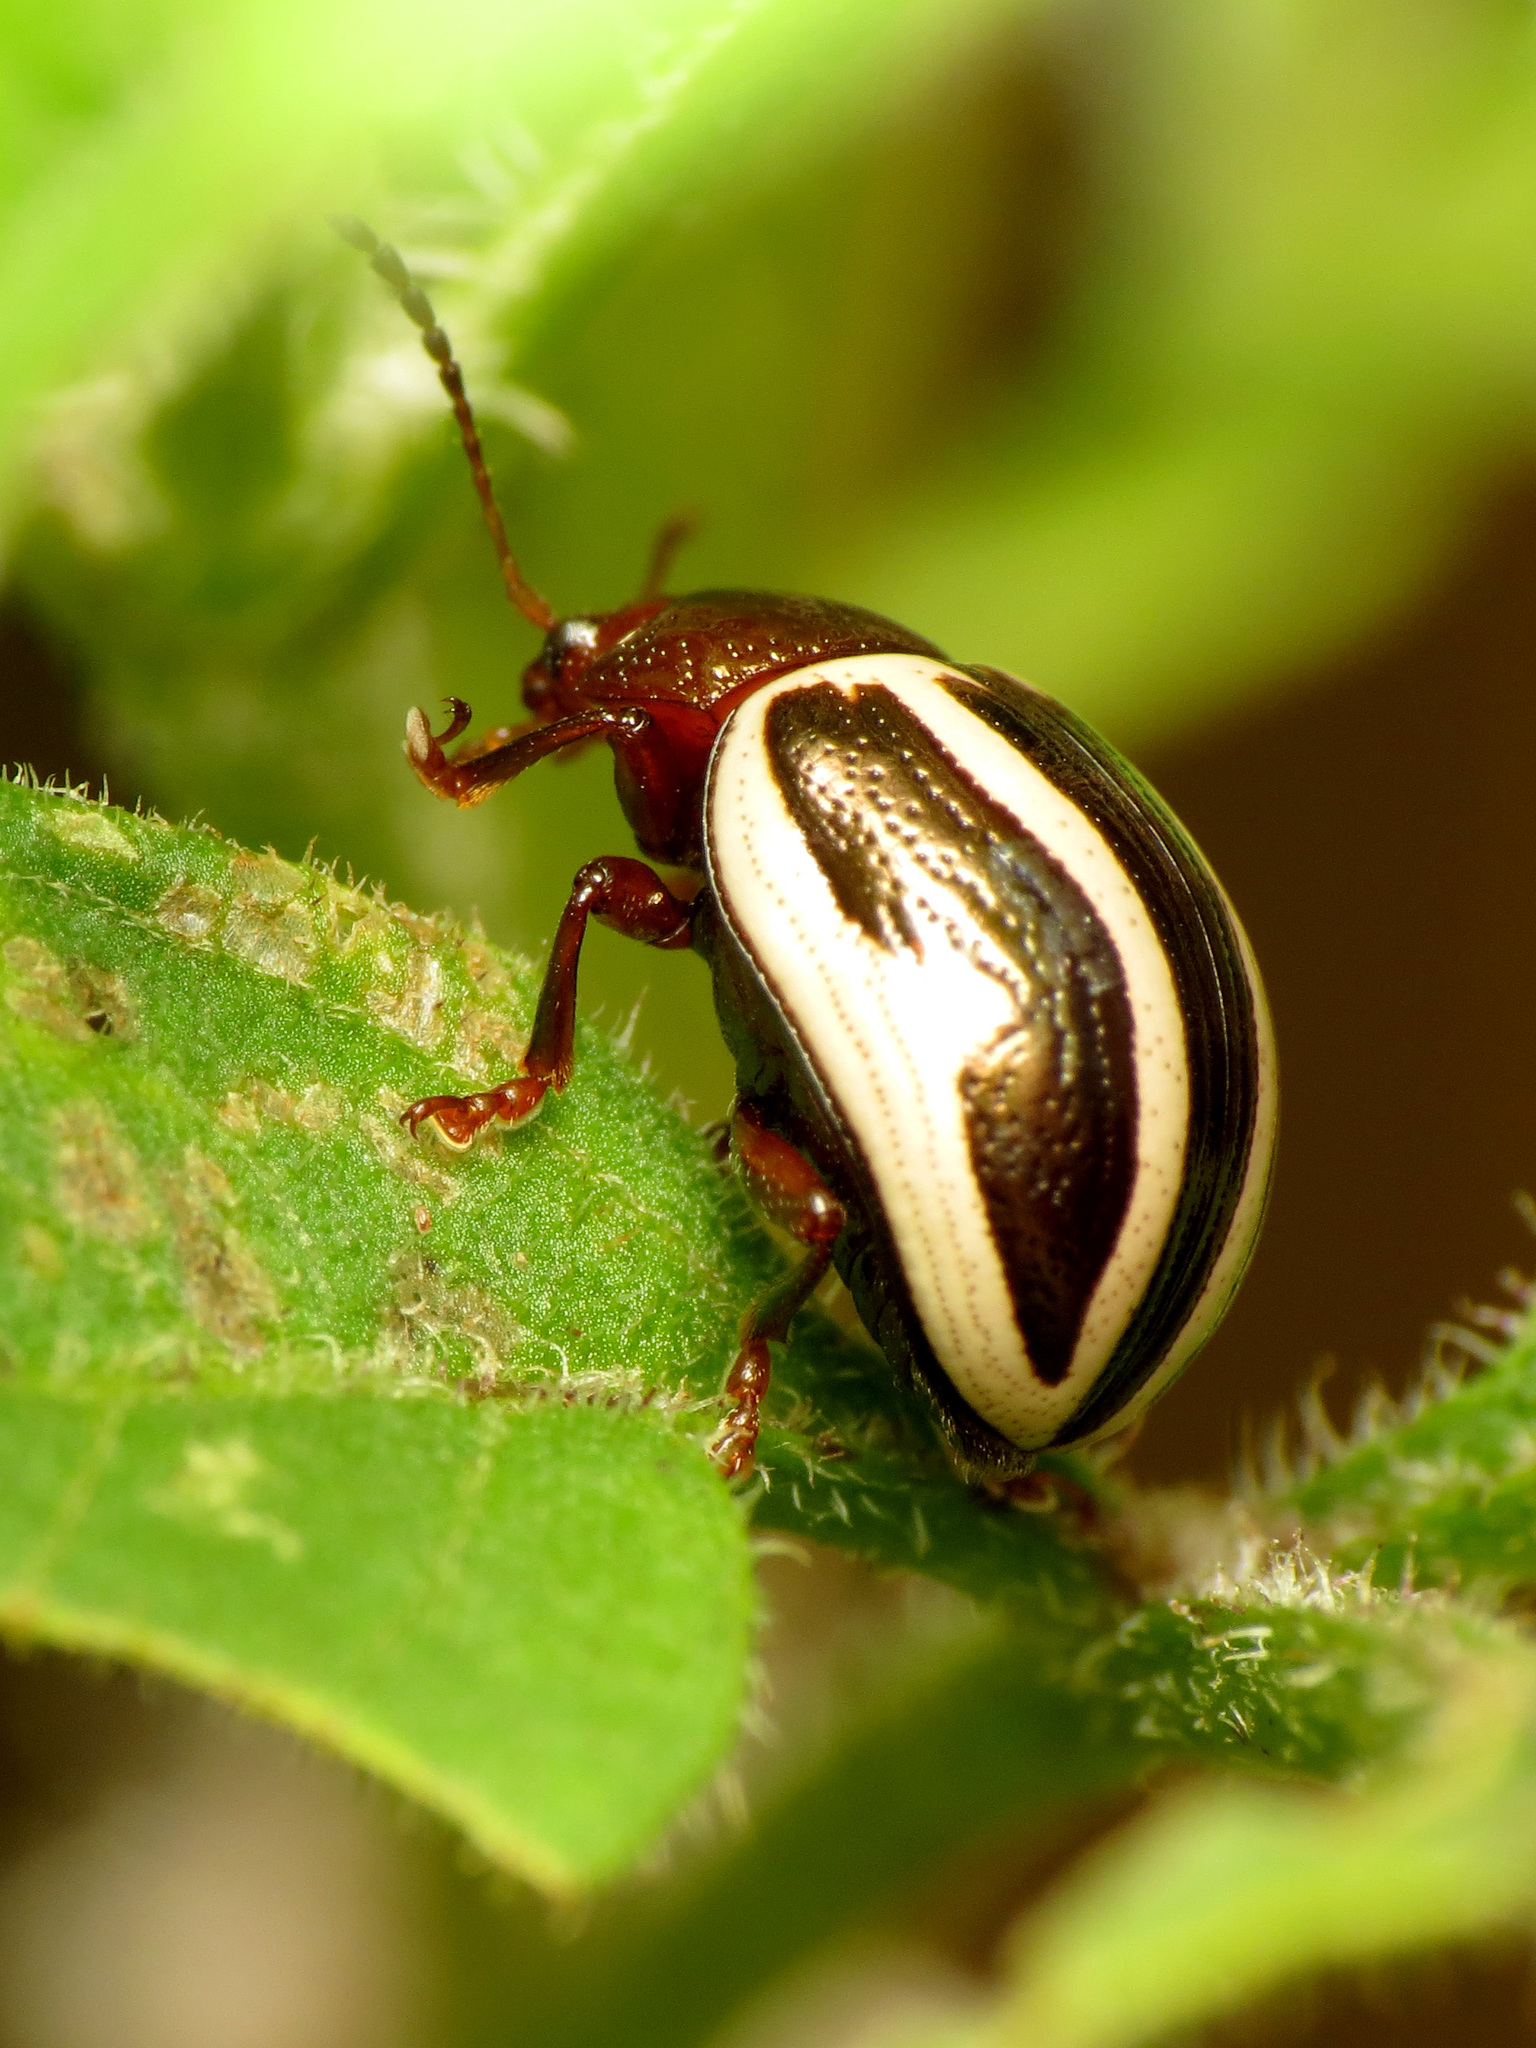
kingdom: Animalia
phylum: Arthropoda
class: Insecta
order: Coleoptera
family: Chrysomelidae
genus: Calligrapha
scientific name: Calligrapha
